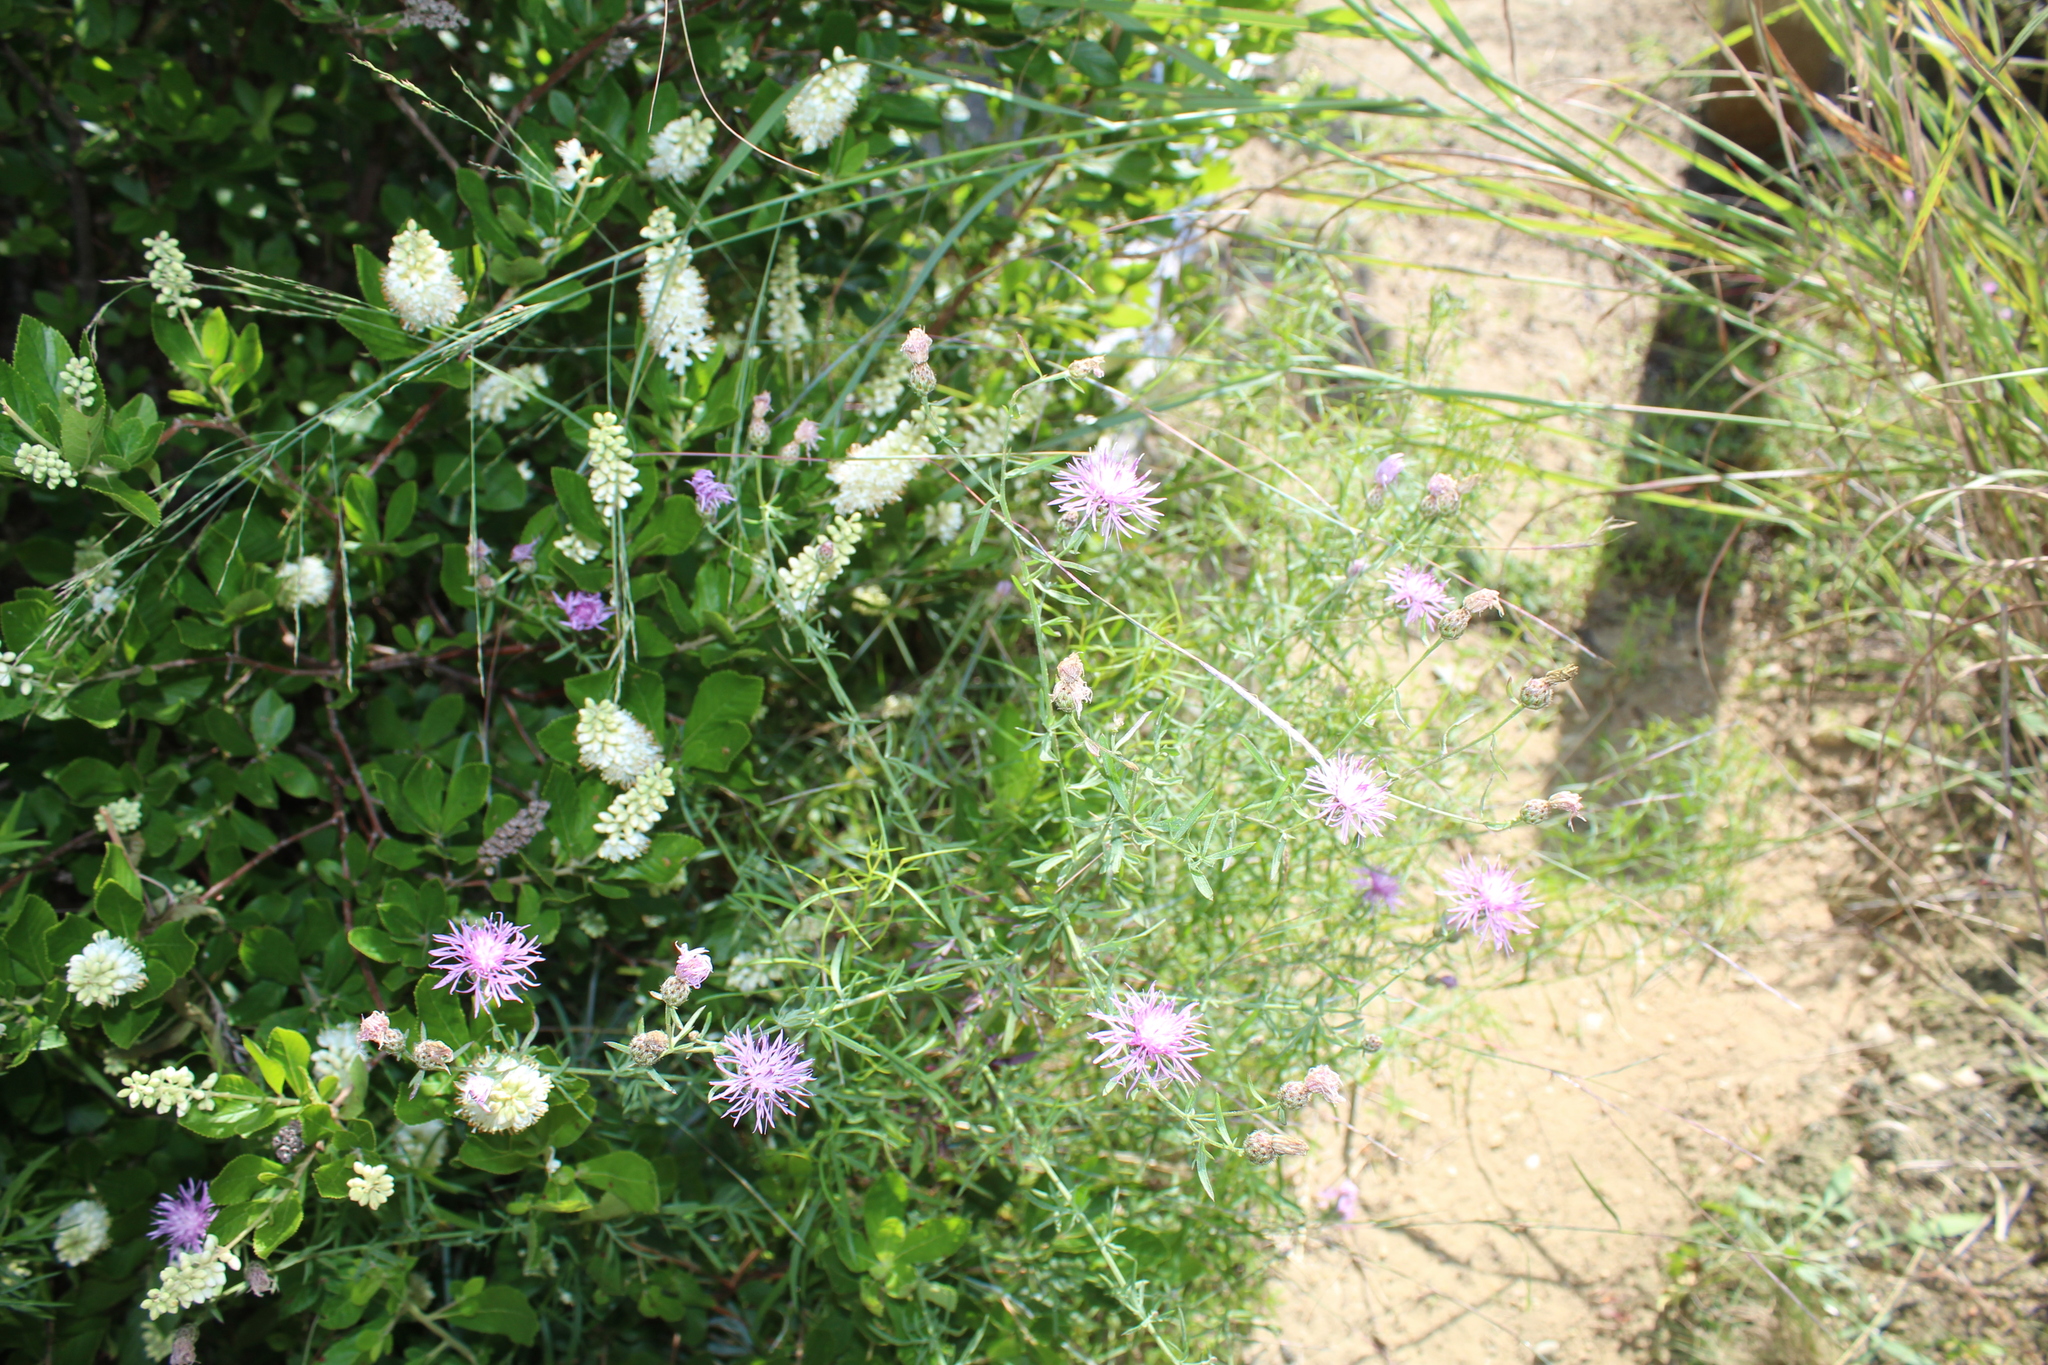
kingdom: Plantae
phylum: Tracheophyta
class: Magnoliopsida
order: Asterales
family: Asteraceae
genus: Centaurea
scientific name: Centaurea stoebe
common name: Spotted knapweed
